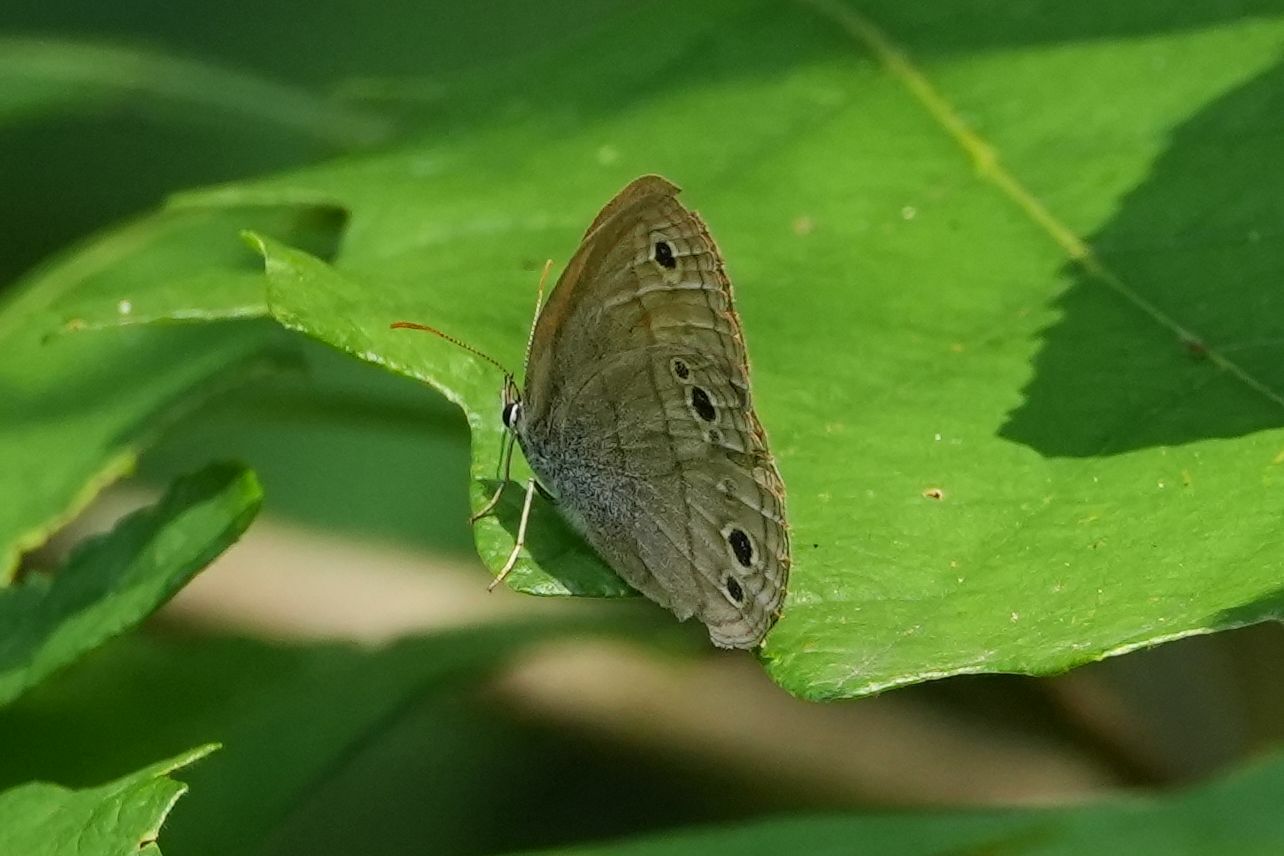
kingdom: Animalia
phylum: Arthropoda
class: Insecta
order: Lepidoptera
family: Nymphalidae
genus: Euptychia
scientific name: Euptychia cymela
